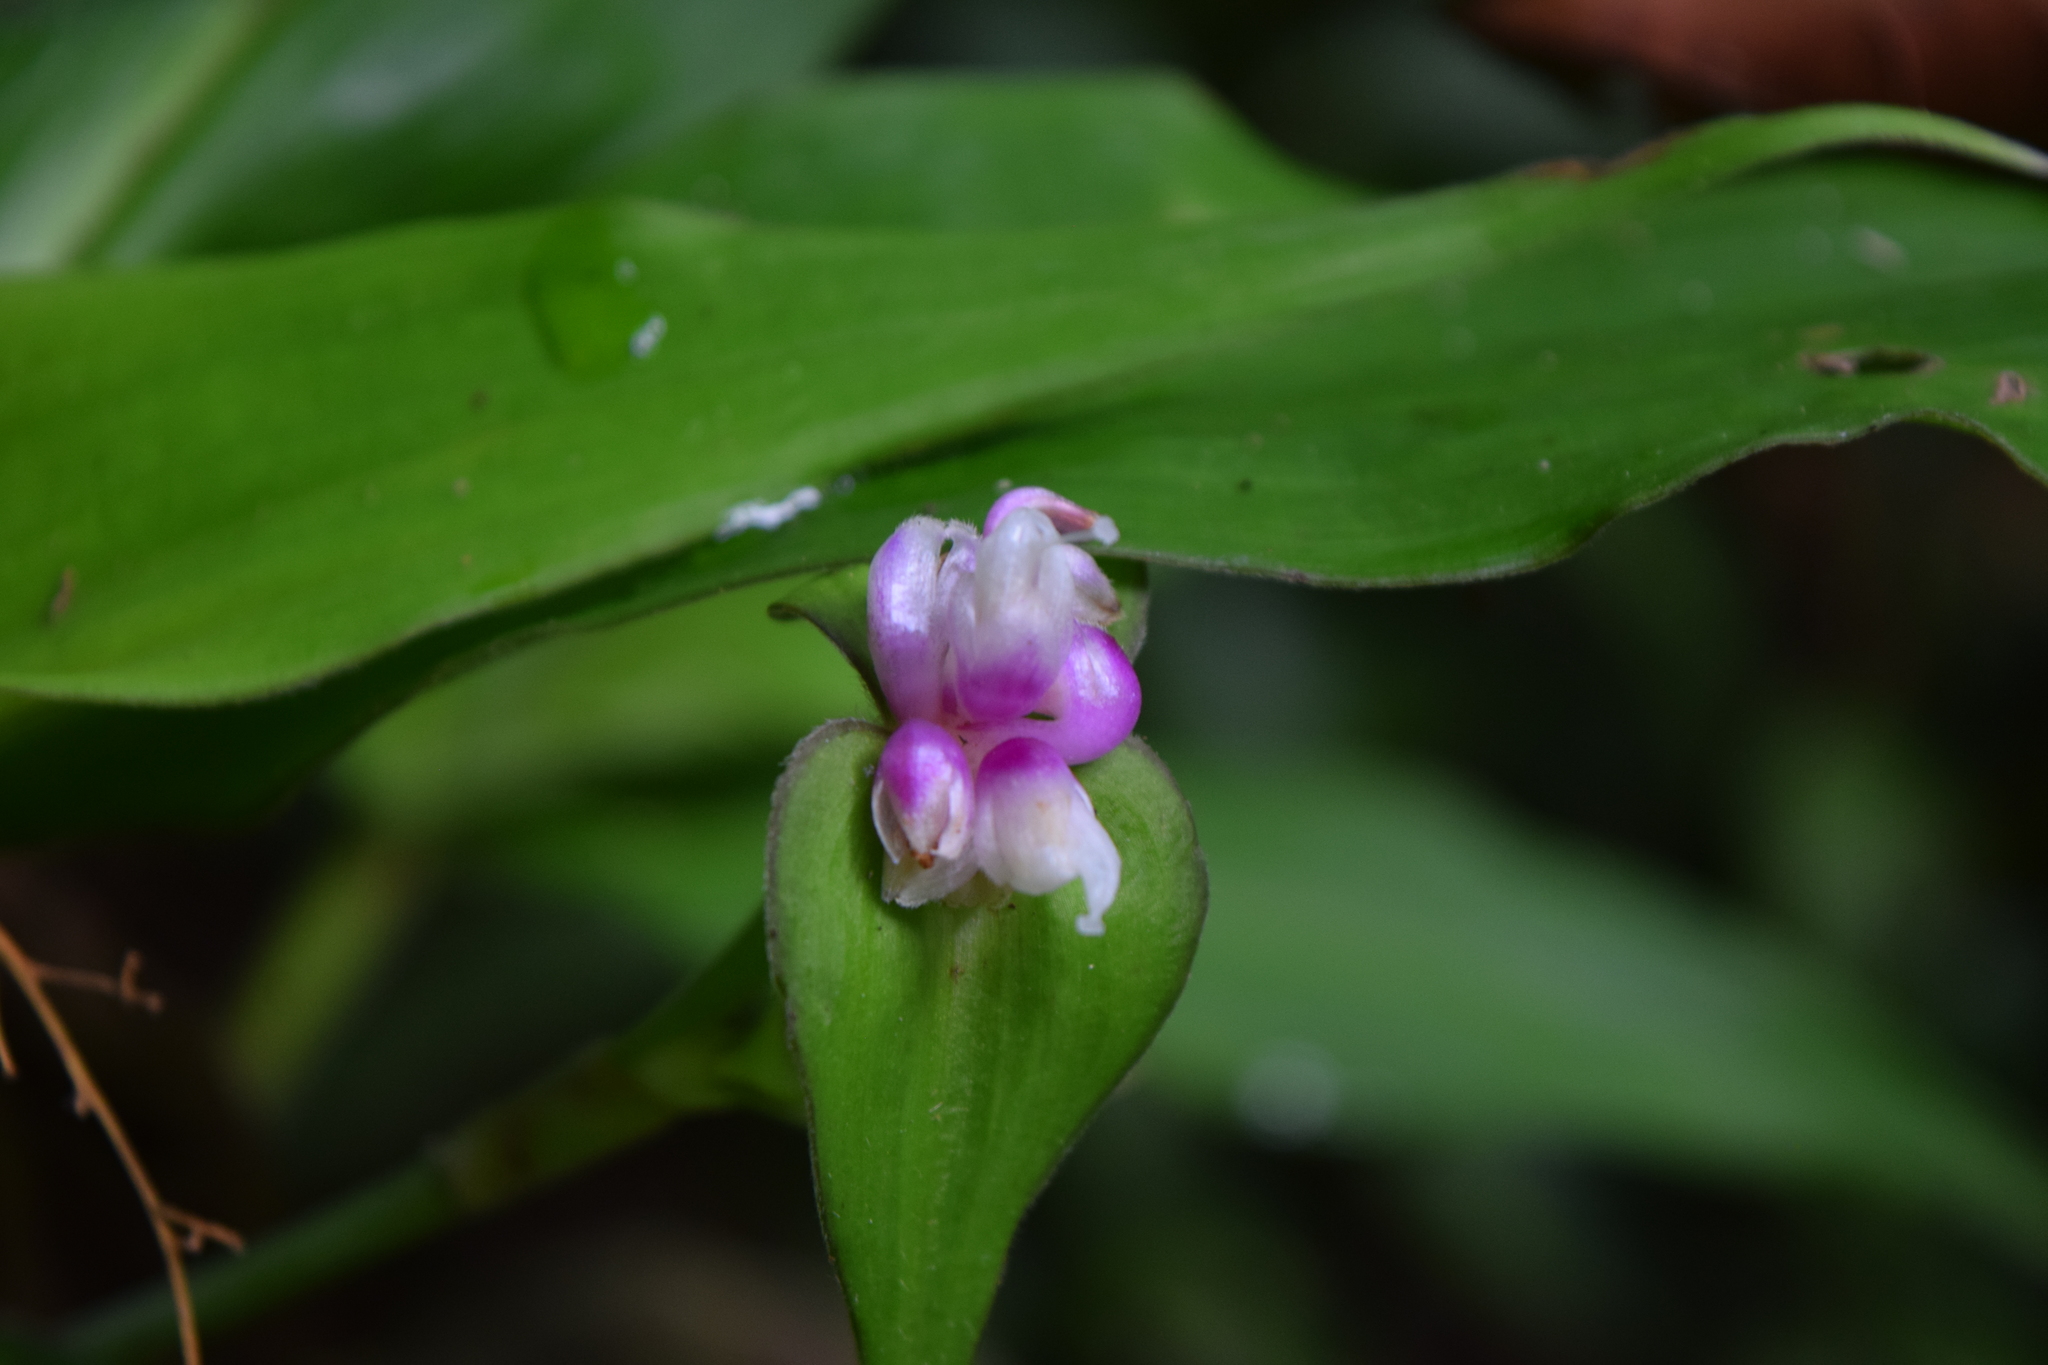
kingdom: Plantae
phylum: Tracheophyta
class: Liliopsida
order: Commelinales
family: Commelinaceae
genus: Tradescantia
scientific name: Tradescantia zanonia
